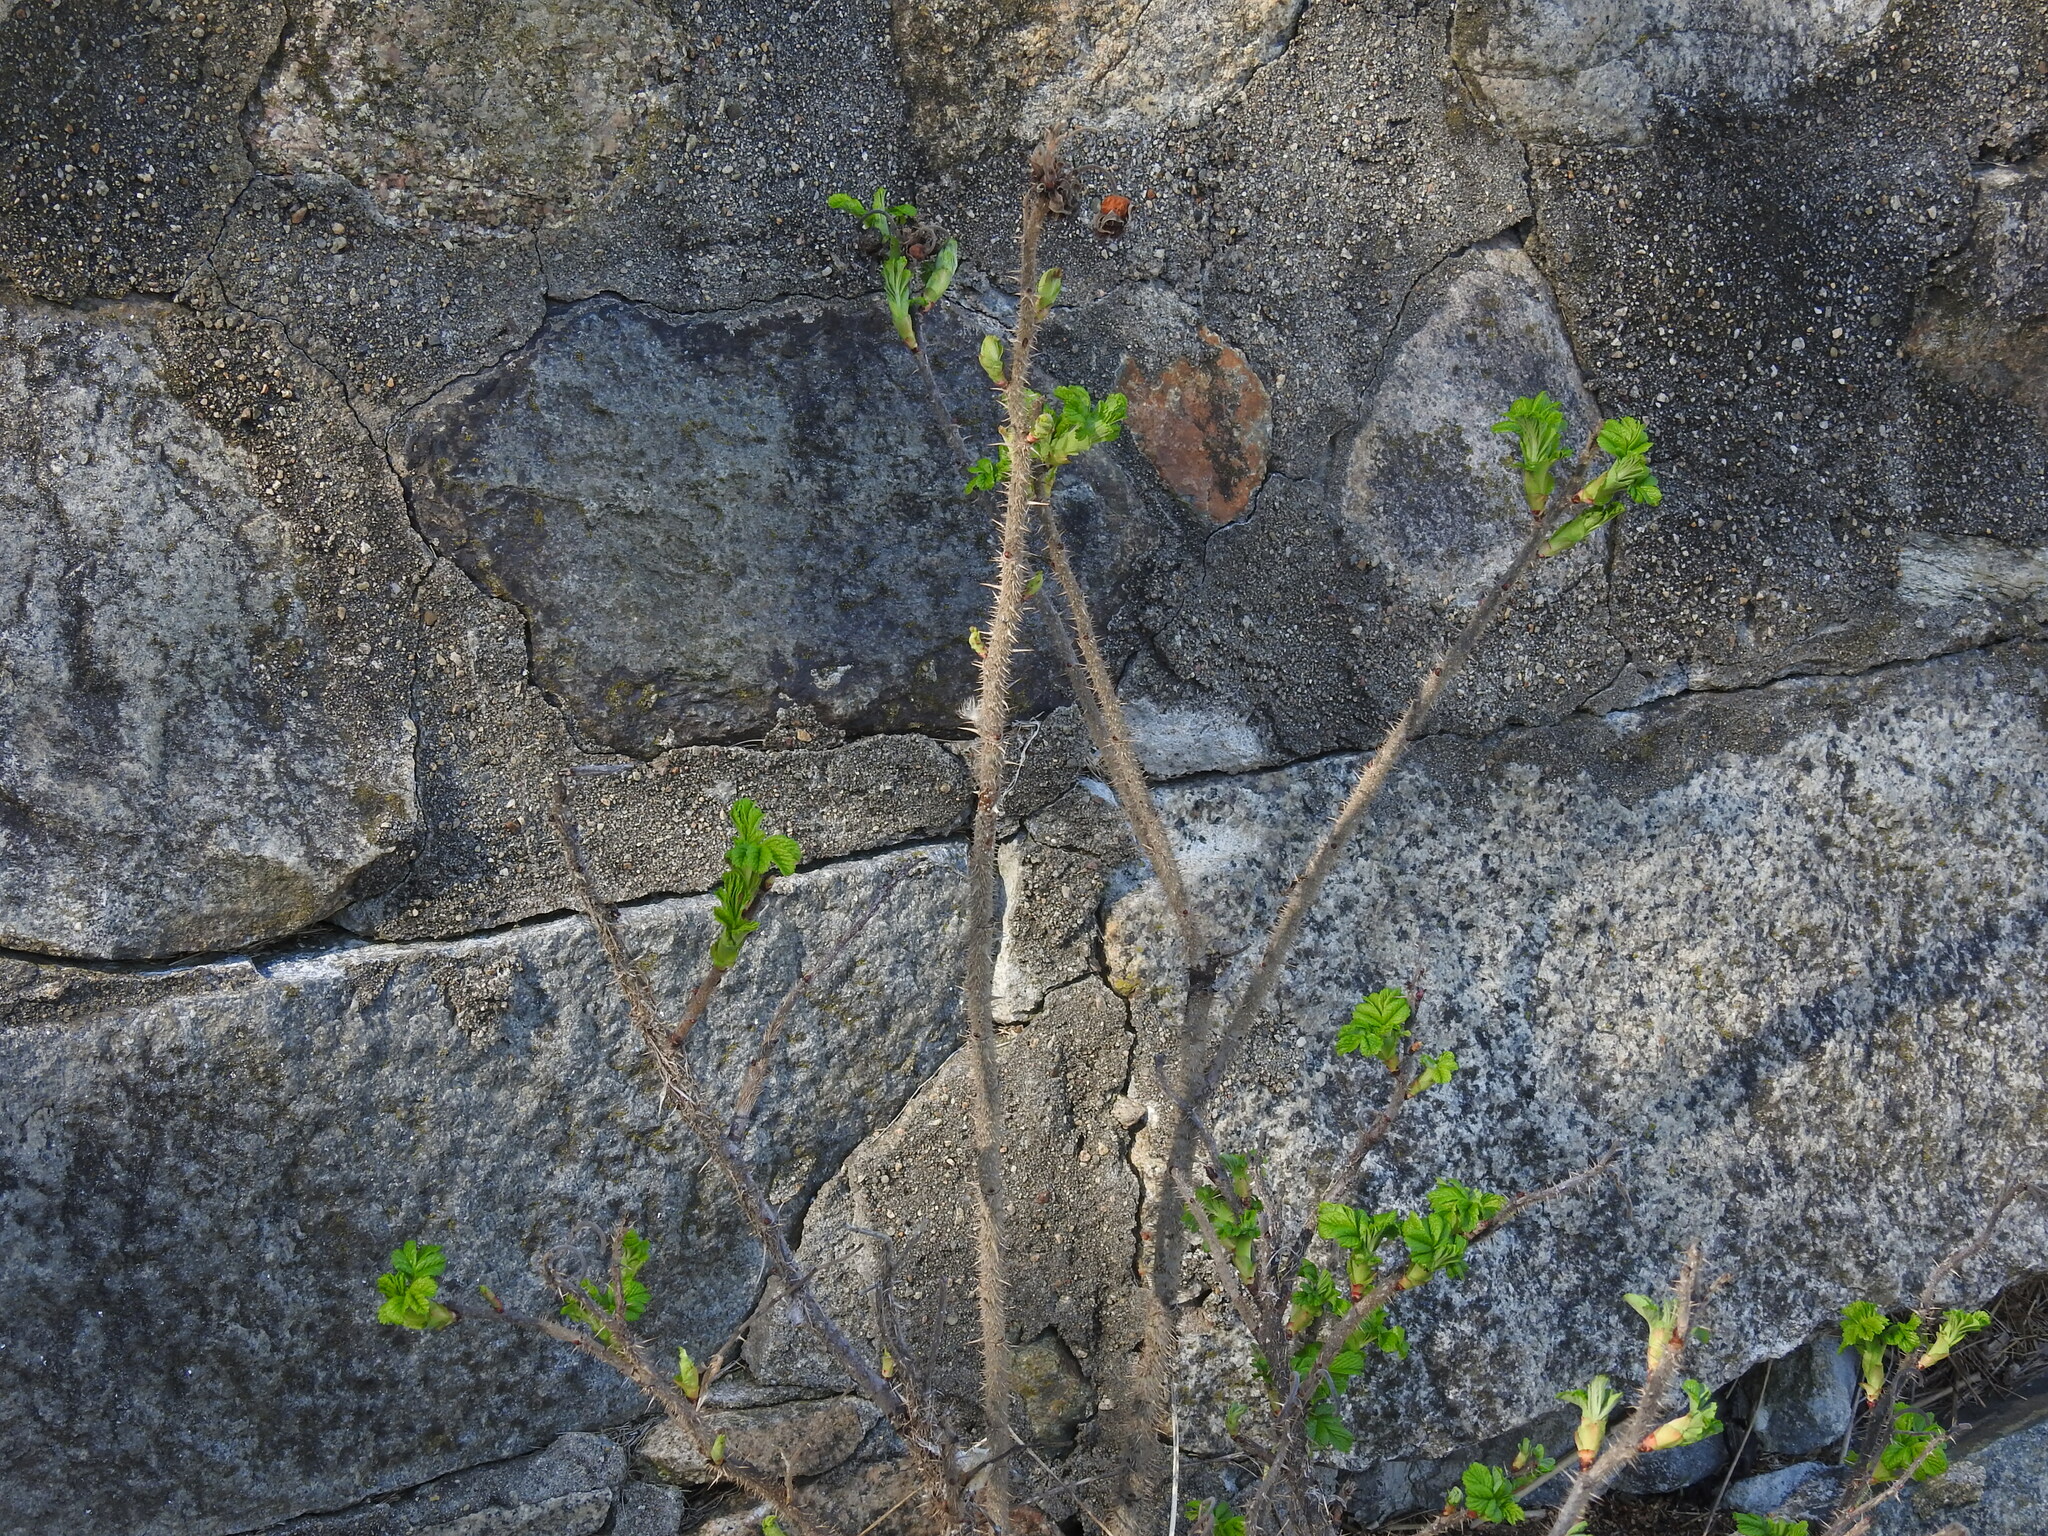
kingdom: Plantae
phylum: Tracheophyta
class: Magnoliopsida
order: Rosales
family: Rosaceae
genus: Rosa
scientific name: Rosa rugosa
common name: Japanese rose
